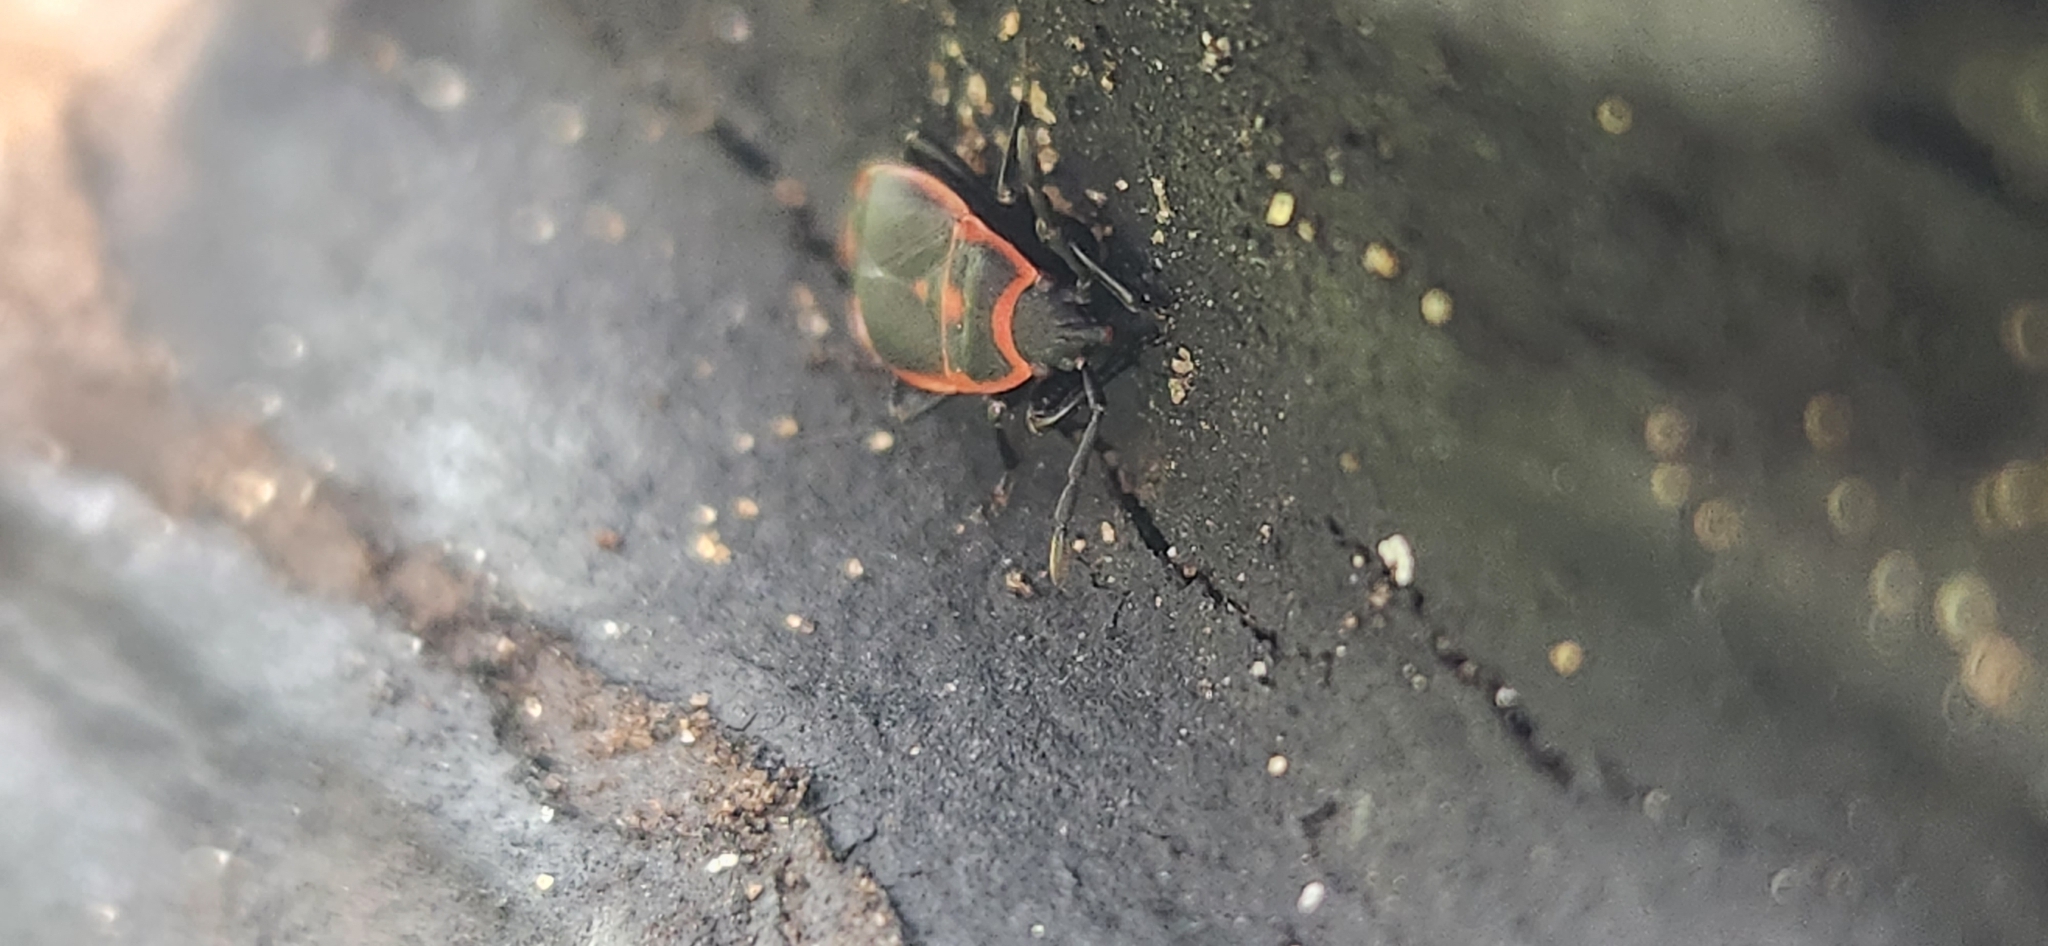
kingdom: Animalia
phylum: Arthropoda
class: Insecta
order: Hemiptera
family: Pyrrhocoridae
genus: Scantius
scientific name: Scantius forsteri
